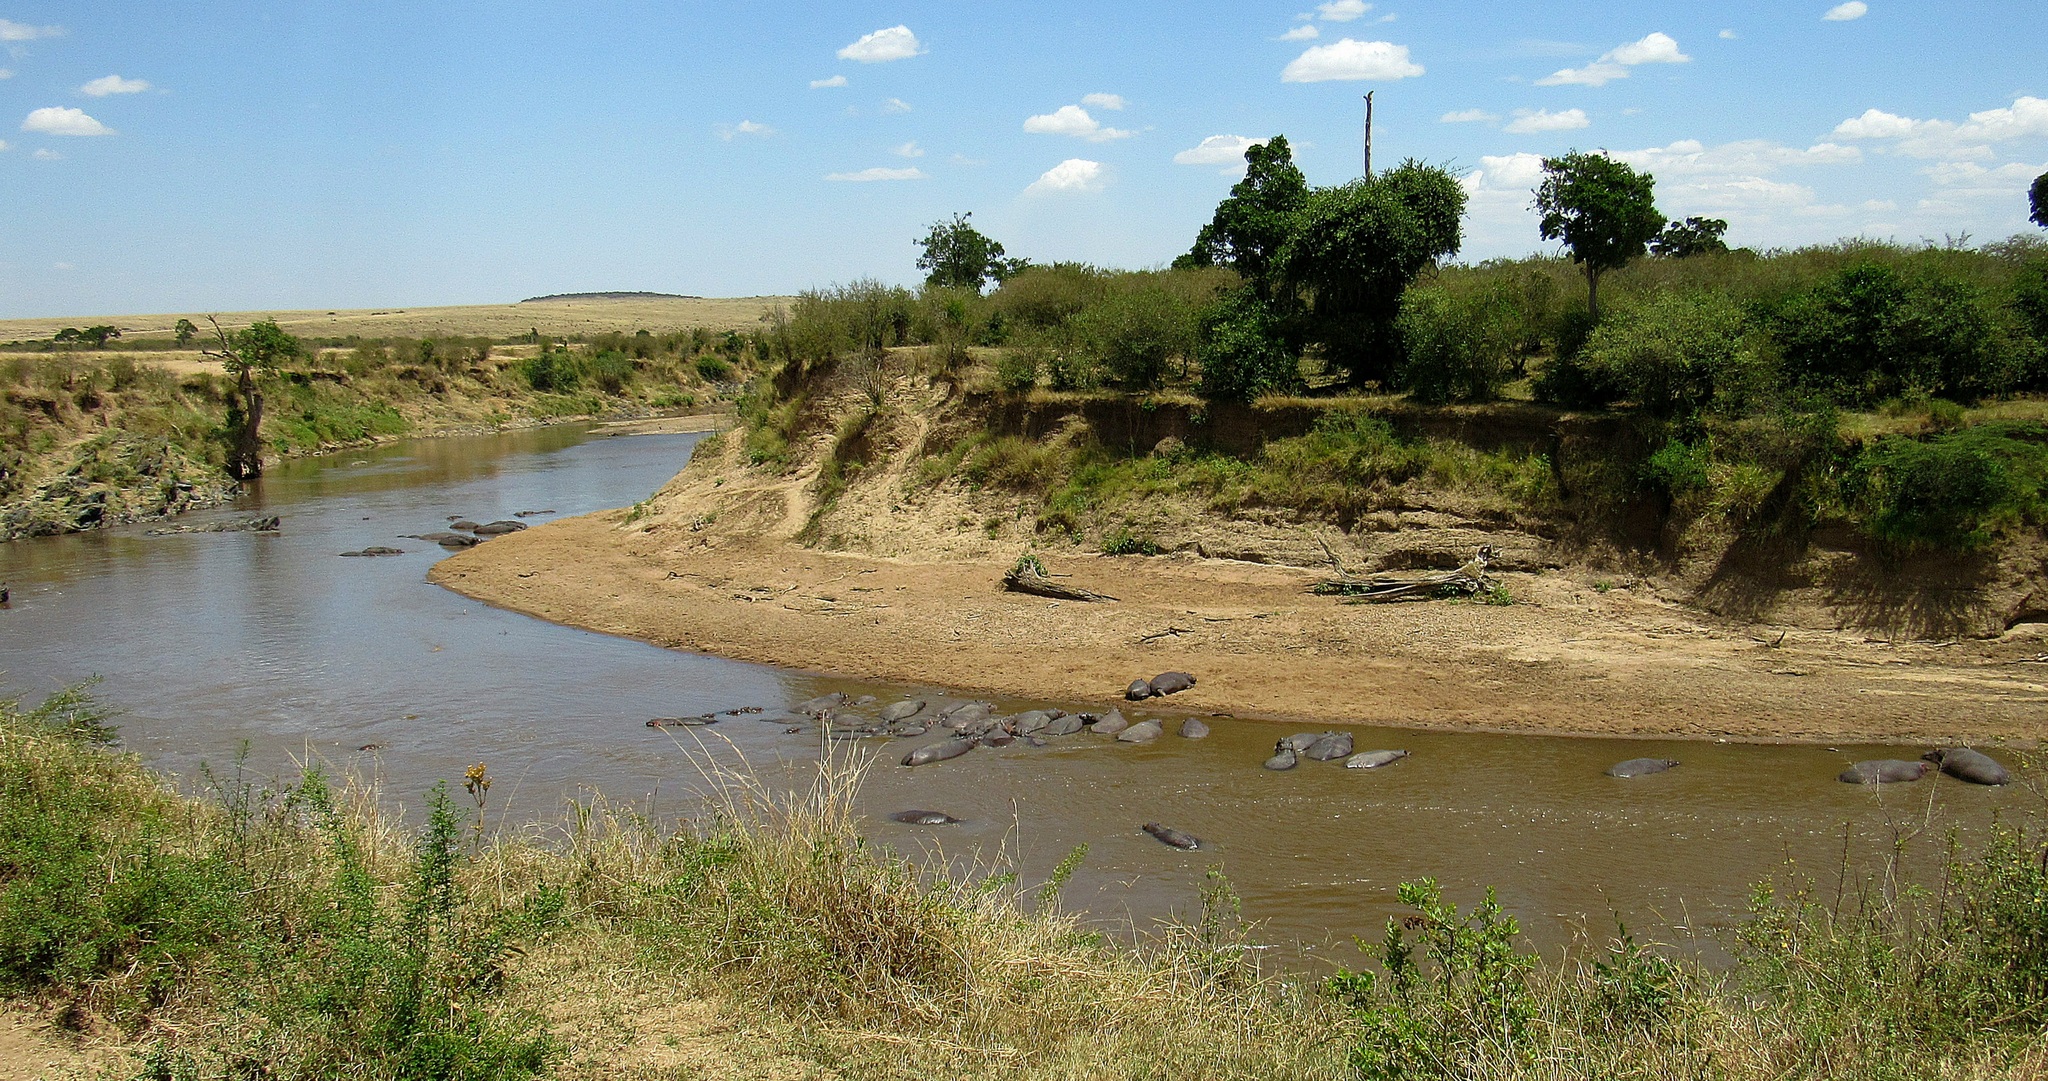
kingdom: Animalia
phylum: Chordata
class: Mammalia
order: Artiodactyla
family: Hippopotamidae
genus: Hippopotamus
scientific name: Hippopotamus amphibius
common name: Common hippopotamus
